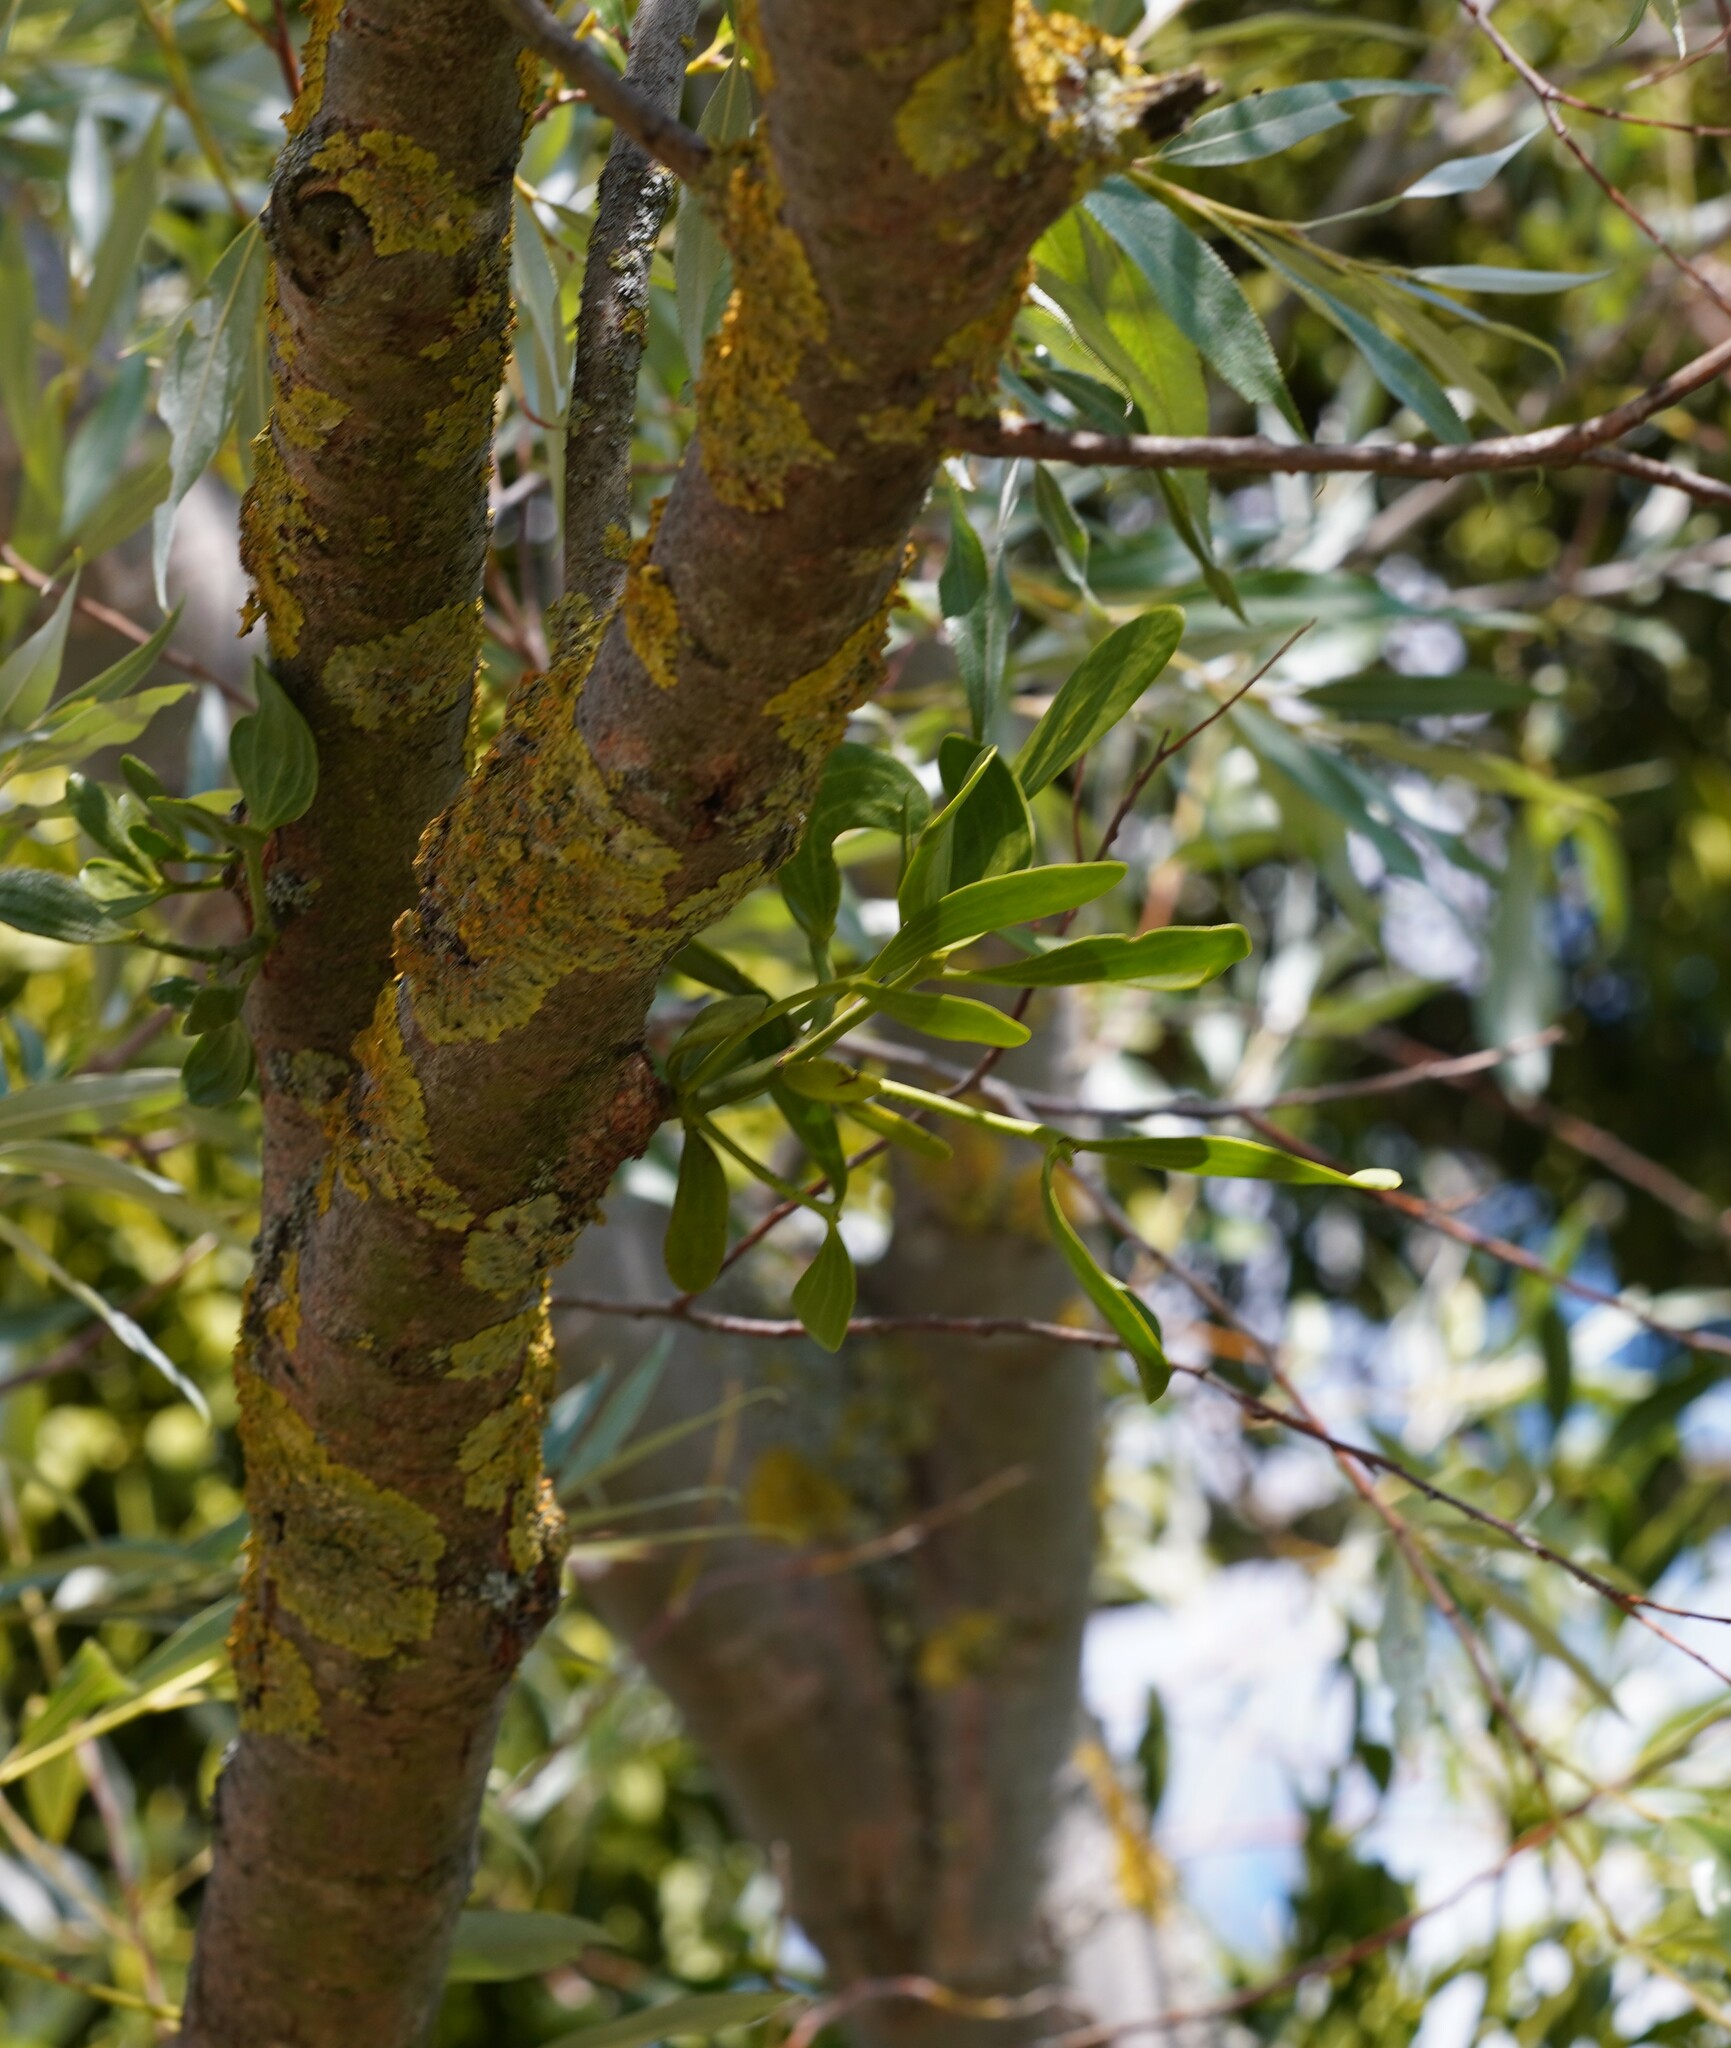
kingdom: Plantae
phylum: Tracheophyta
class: Magnoliopsida
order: Santalales
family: Viscaceae
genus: Viscum
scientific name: Viscum album
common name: Mistletoe
